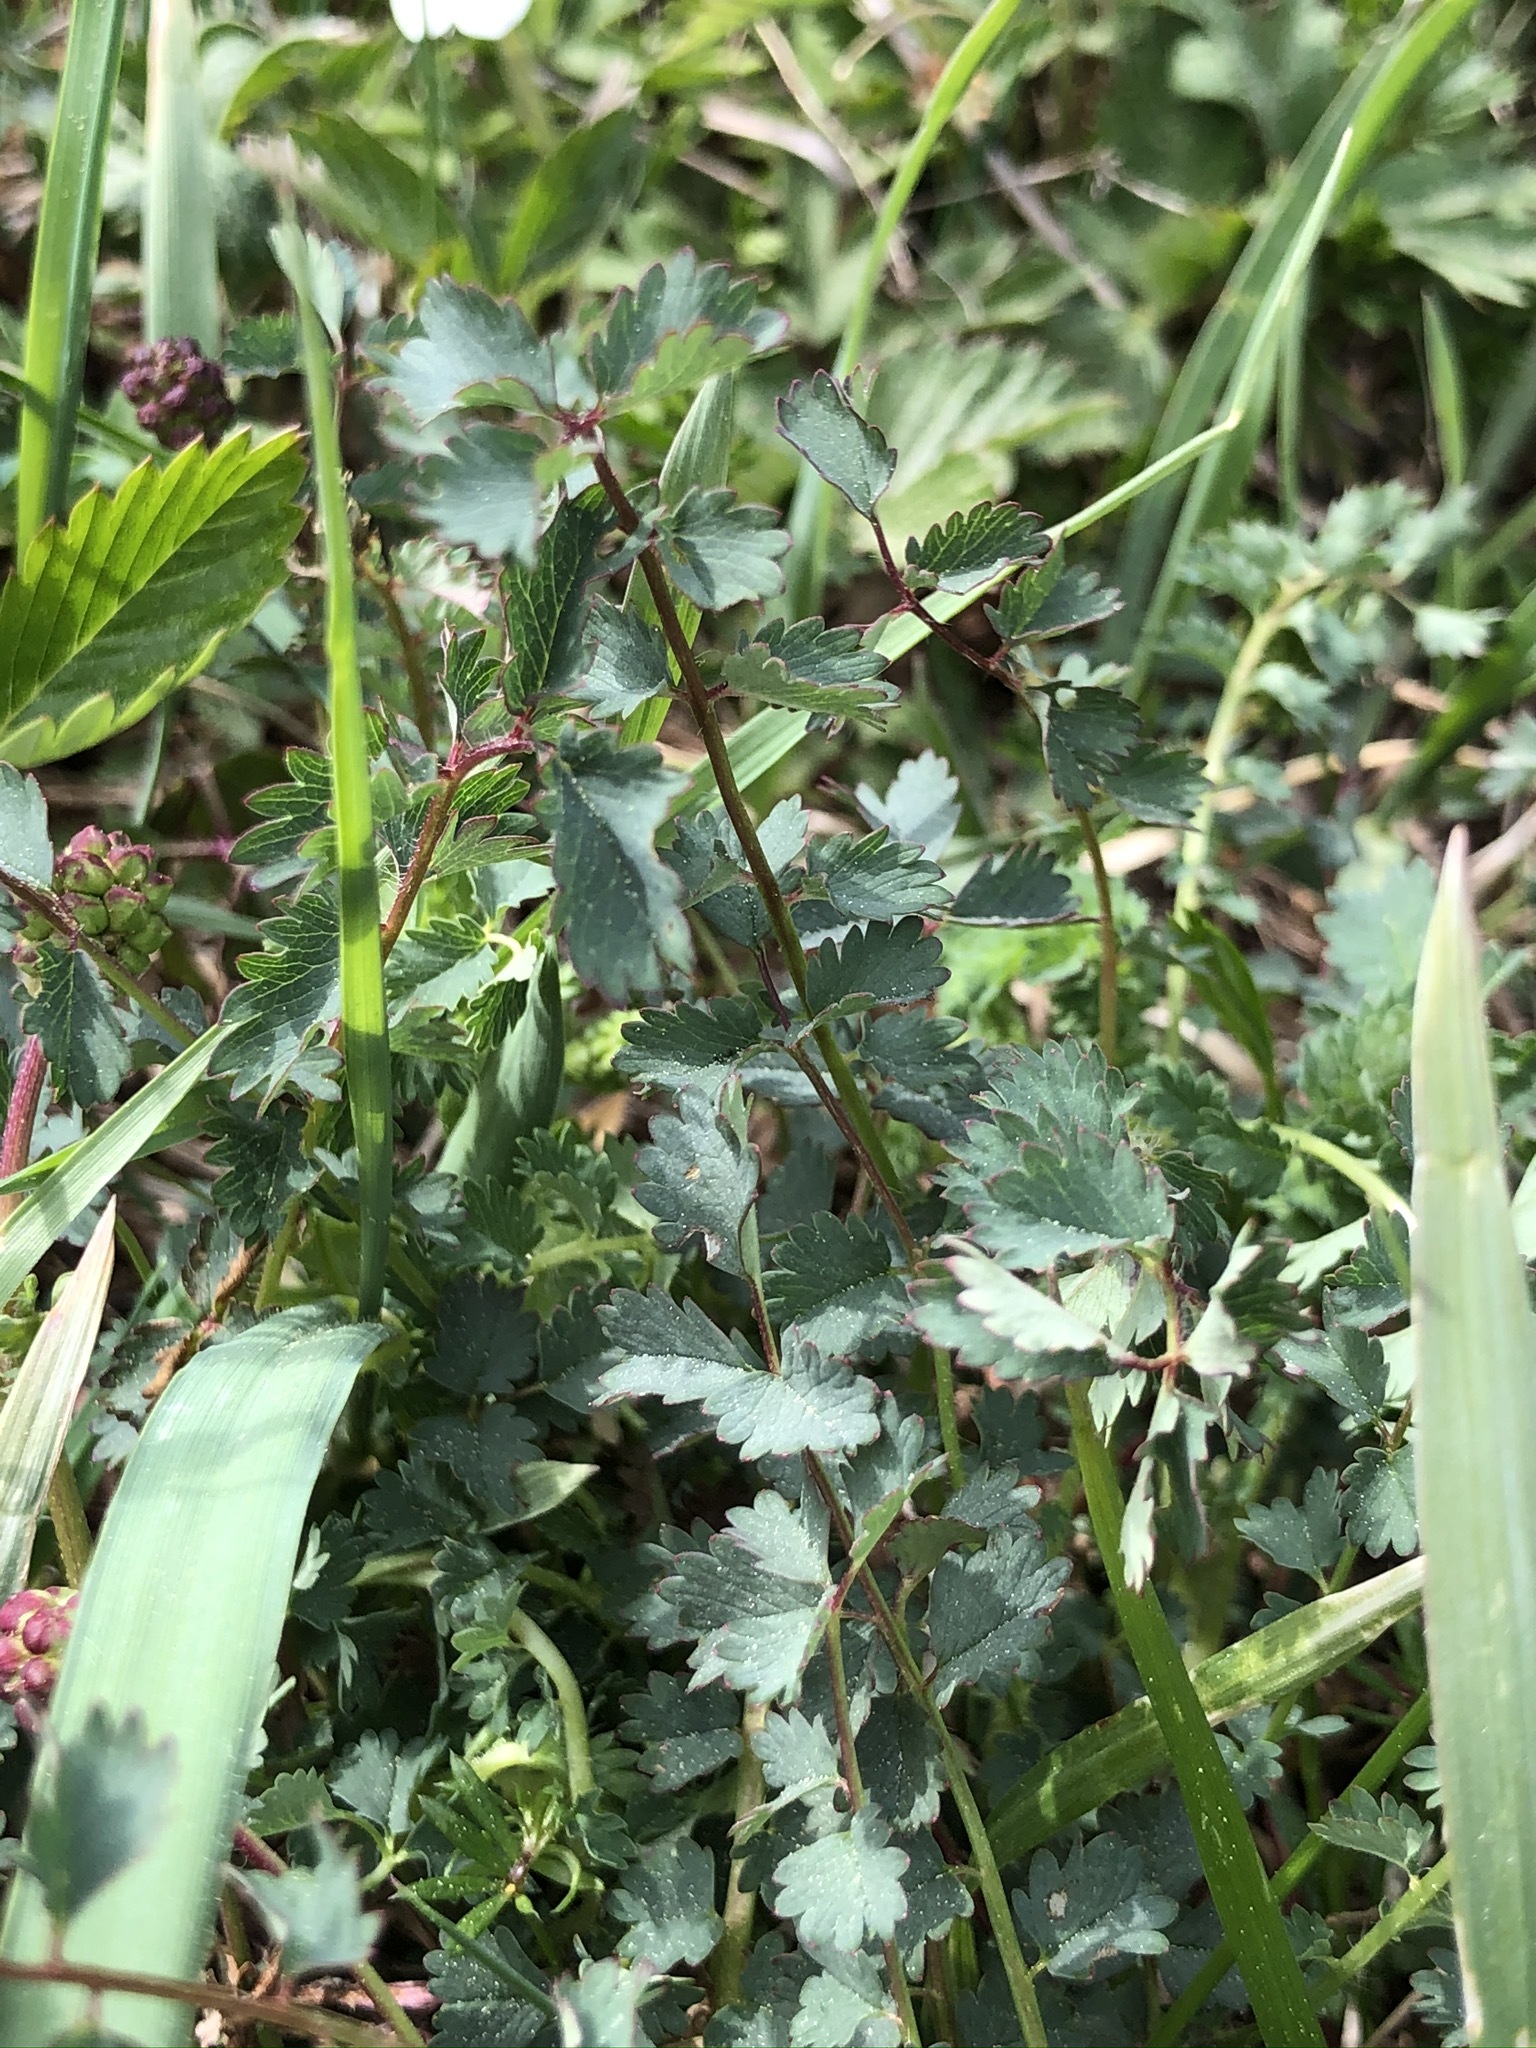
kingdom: Plantae
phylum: Tracheophyta
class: Magnoliopsida
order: Rosales
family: Rosaceae
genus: Poterium
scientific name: Poterium sanguisorba
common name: Salad burnet
